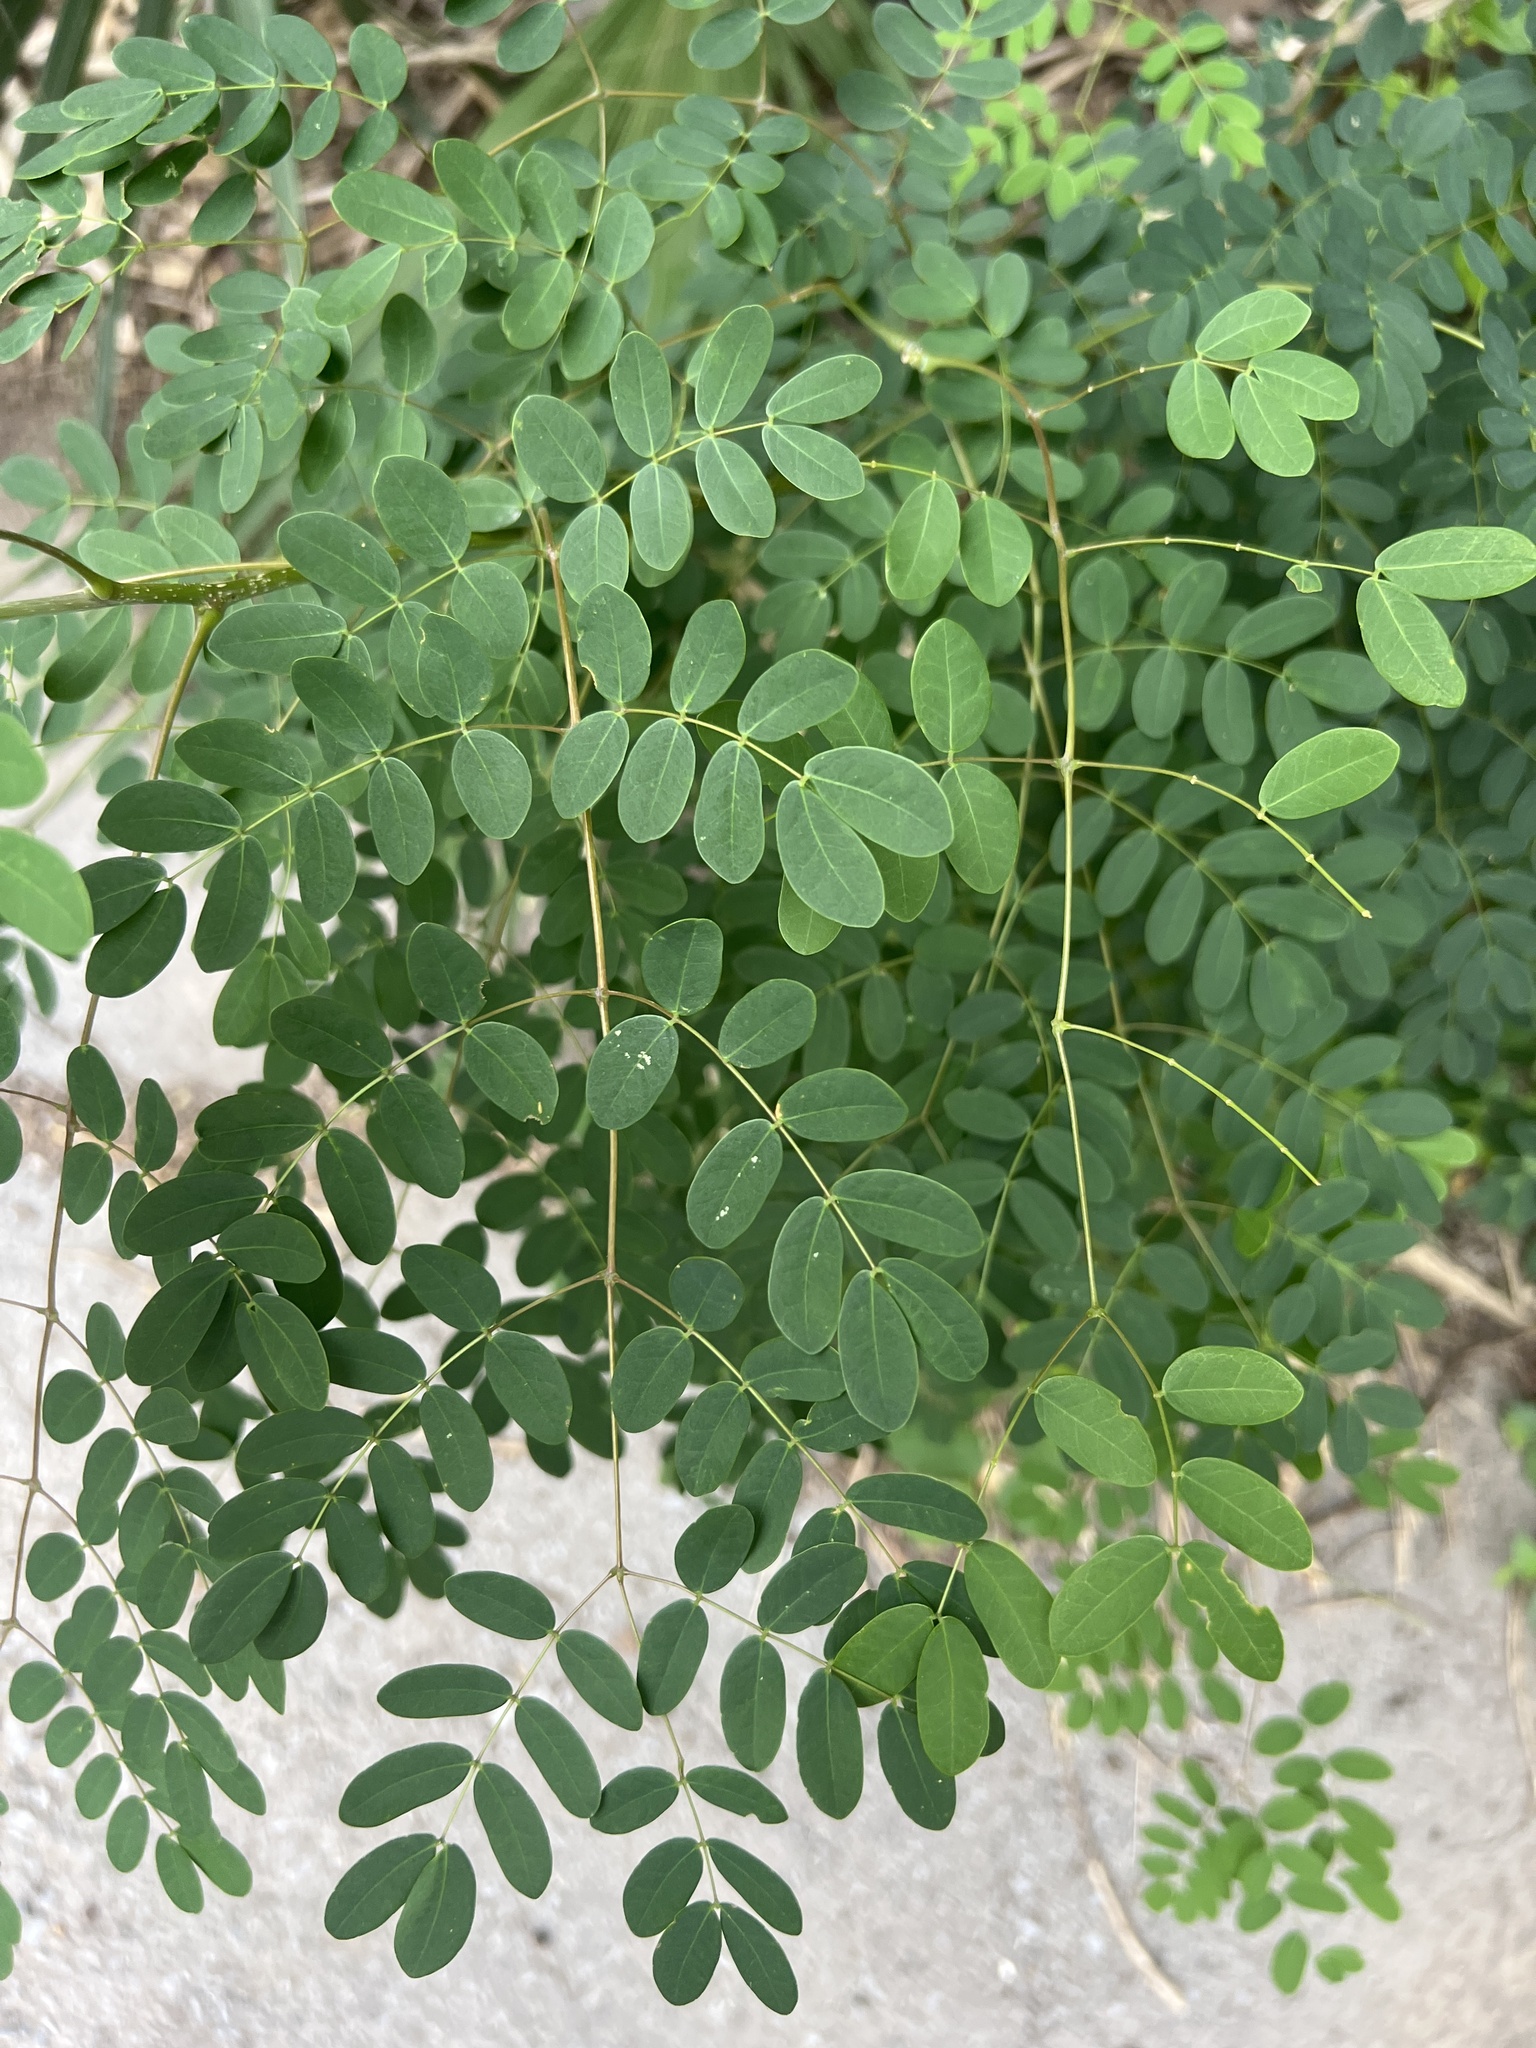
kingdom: Plantae
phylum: Tracheophyta
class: Magnoliopsida
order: Fabales
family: Fabaceae
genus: Erythrostemon
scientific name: Erythrostemon mexicanus
